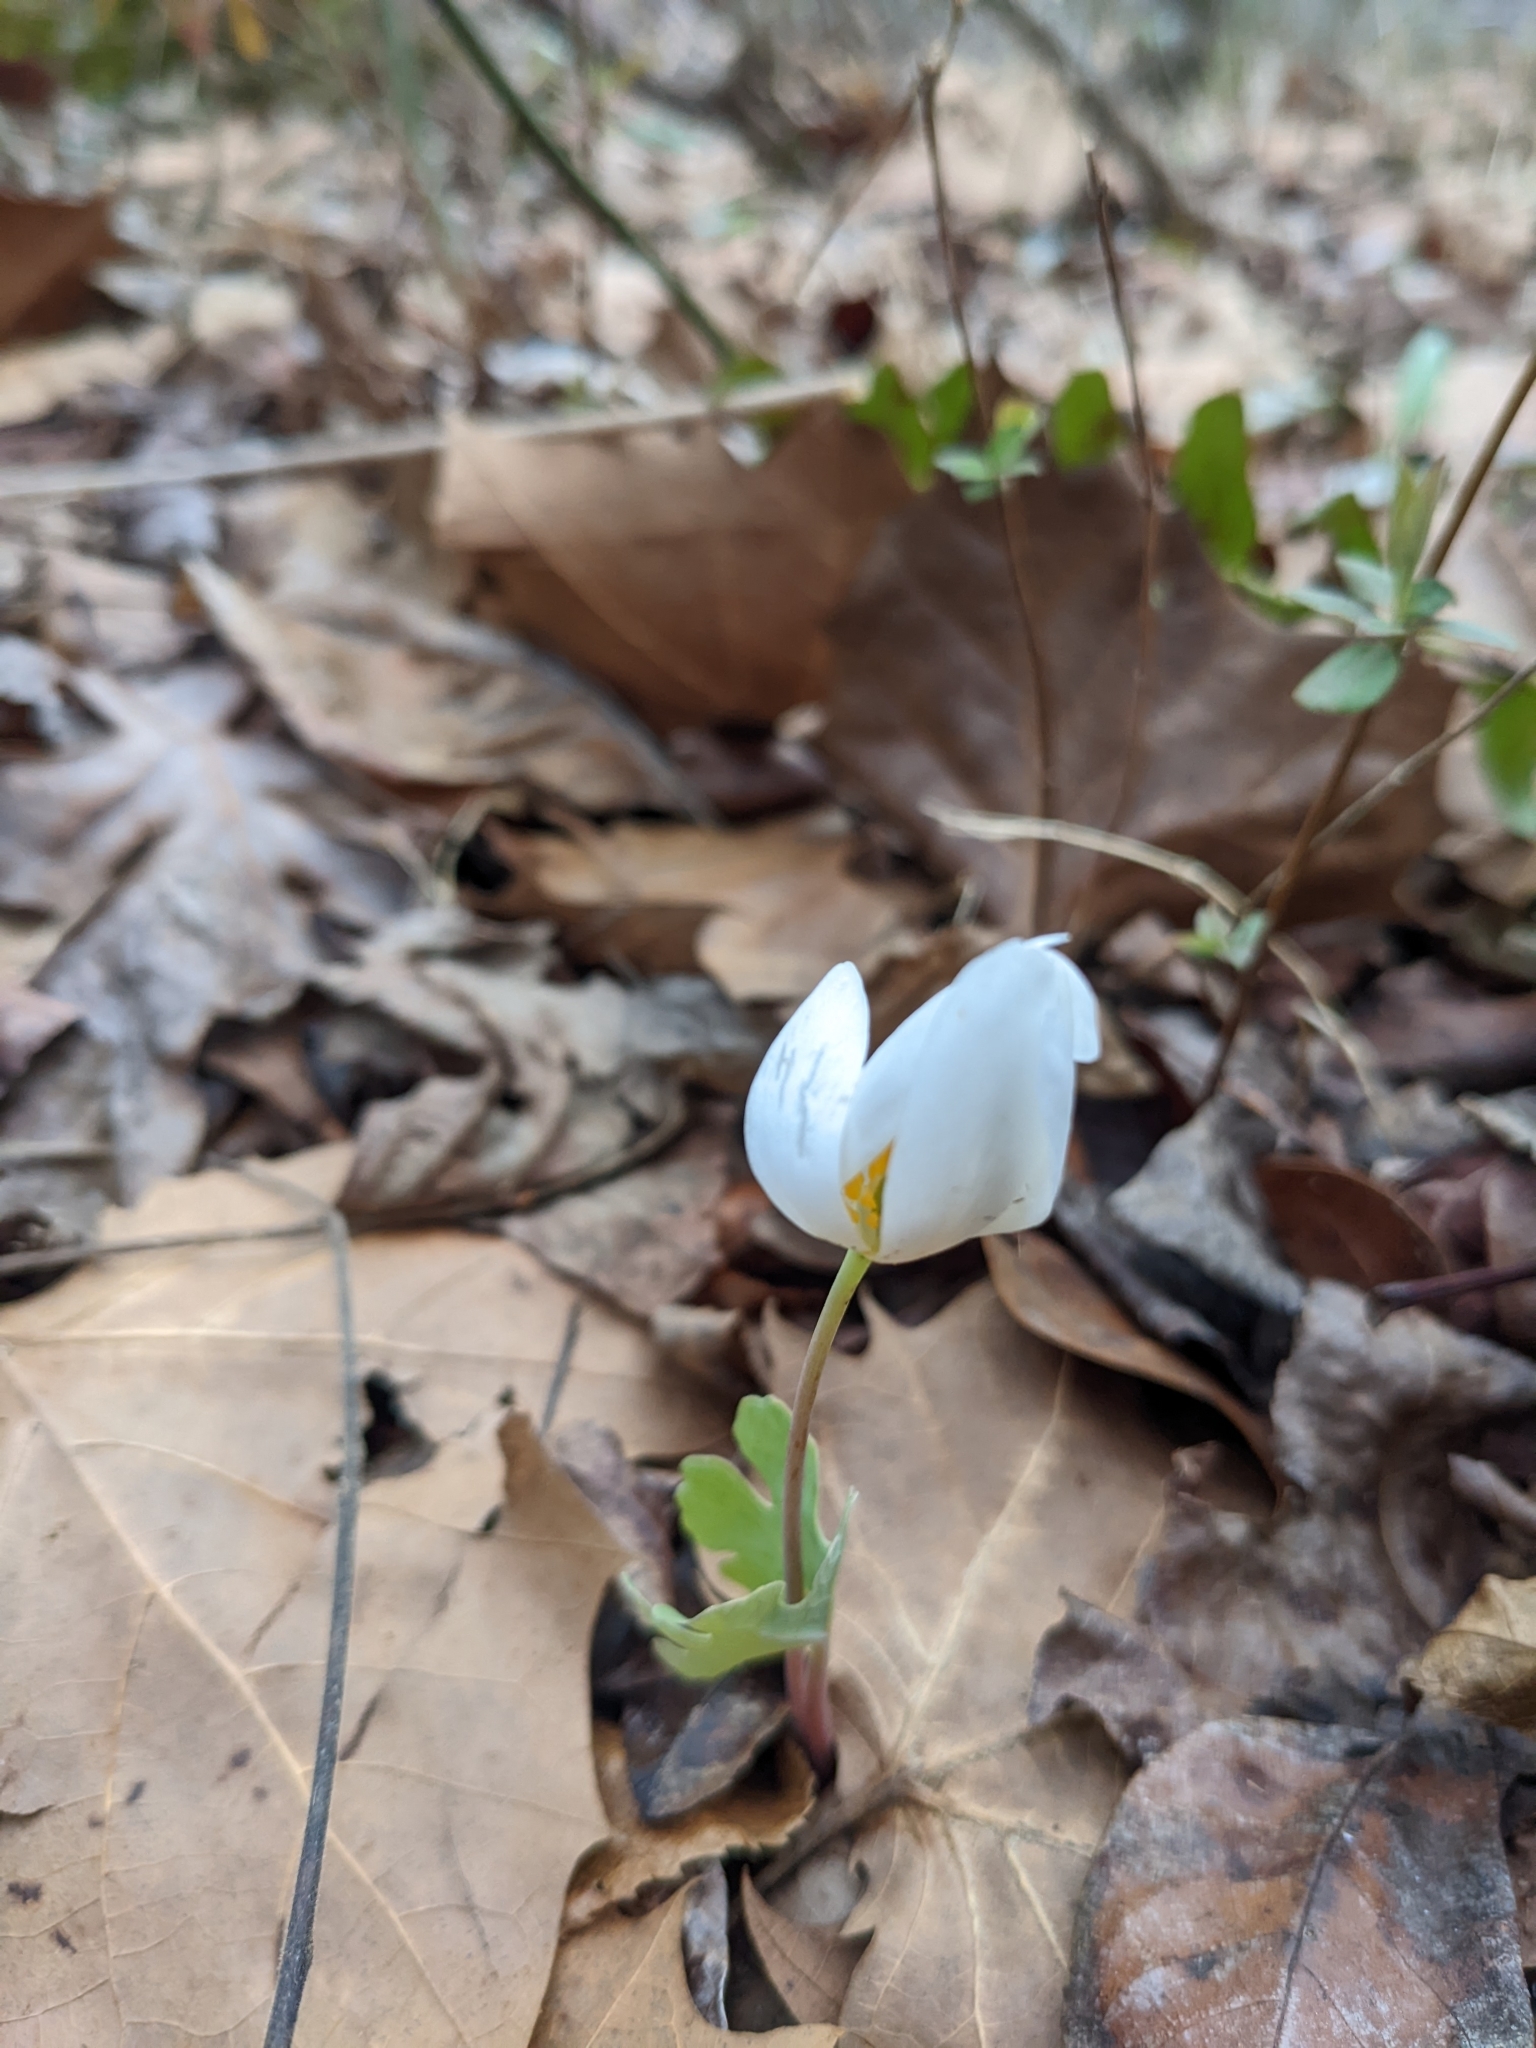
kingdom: Plantae
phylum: Tracheophyta
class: Magnoliopsida
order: Ranunculales
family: Papaveraceae
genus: Sanguinaria
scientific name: Sanguinaria canadensis
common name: Bloodroot
